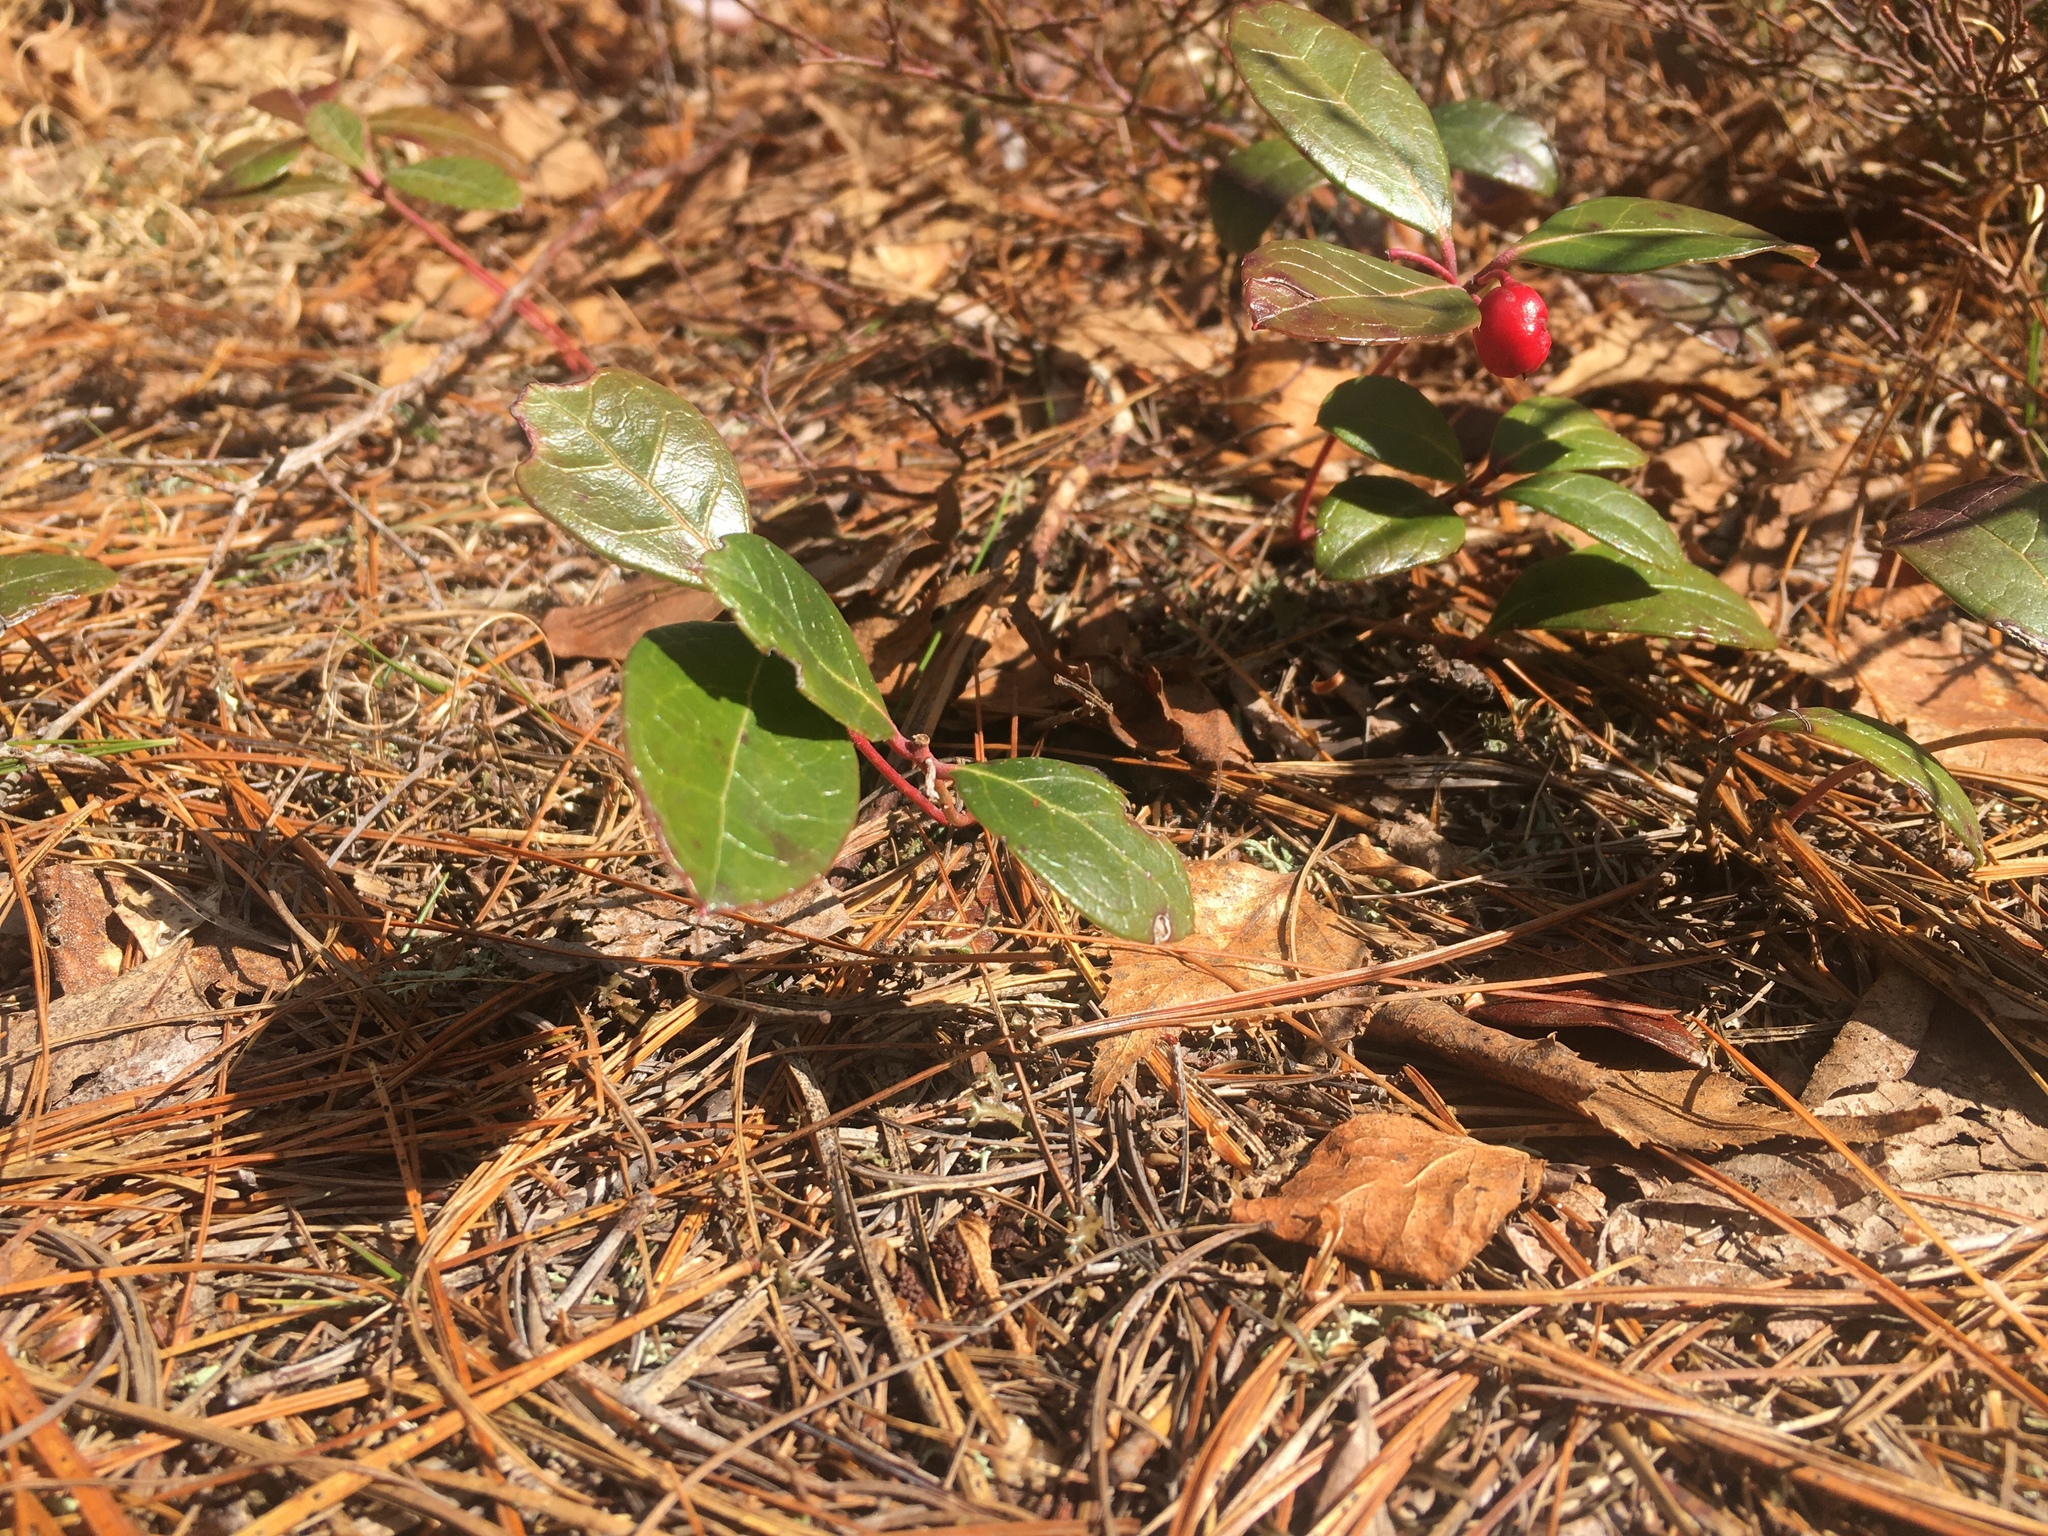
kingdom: Plantae
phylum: Tracheophyta
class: Magnoliopsida
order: Ericales
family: Ericaceae
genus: Gaultheria
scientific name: Gaultheria procumbens
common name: Checkerberry
